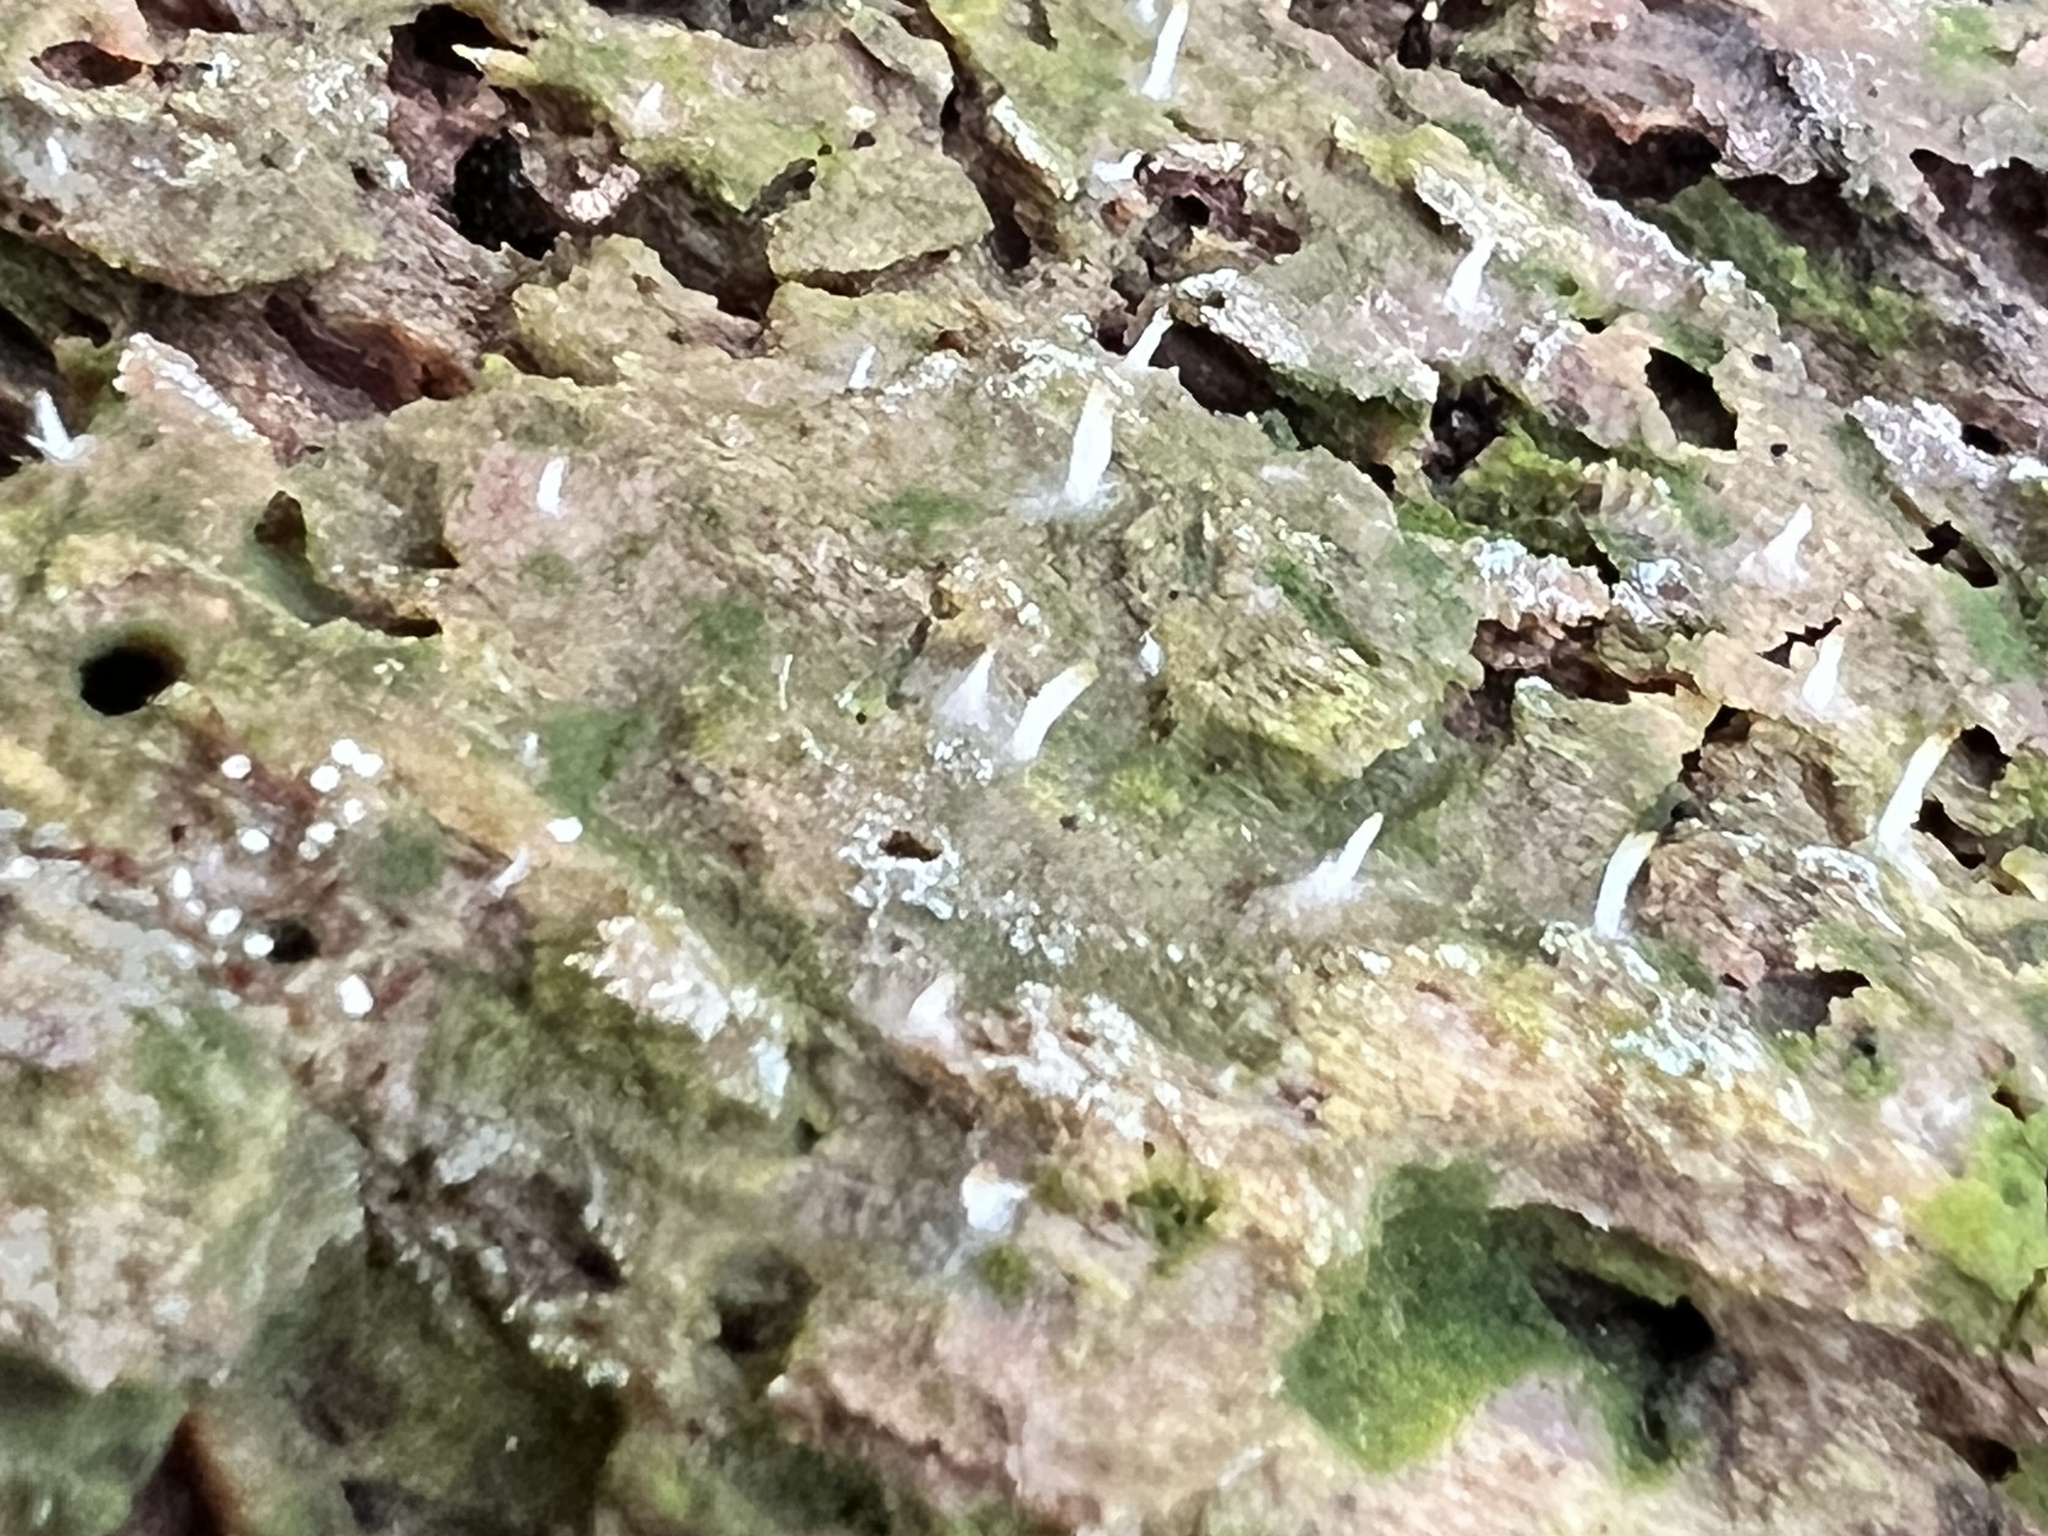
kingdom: Fungi
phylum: Basidiomycota
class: Agaricomycetes
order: Cantharellales
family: Hydnaceae
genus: Multiclavula
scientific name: Multiclavula mucida
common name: White green-algae coral
